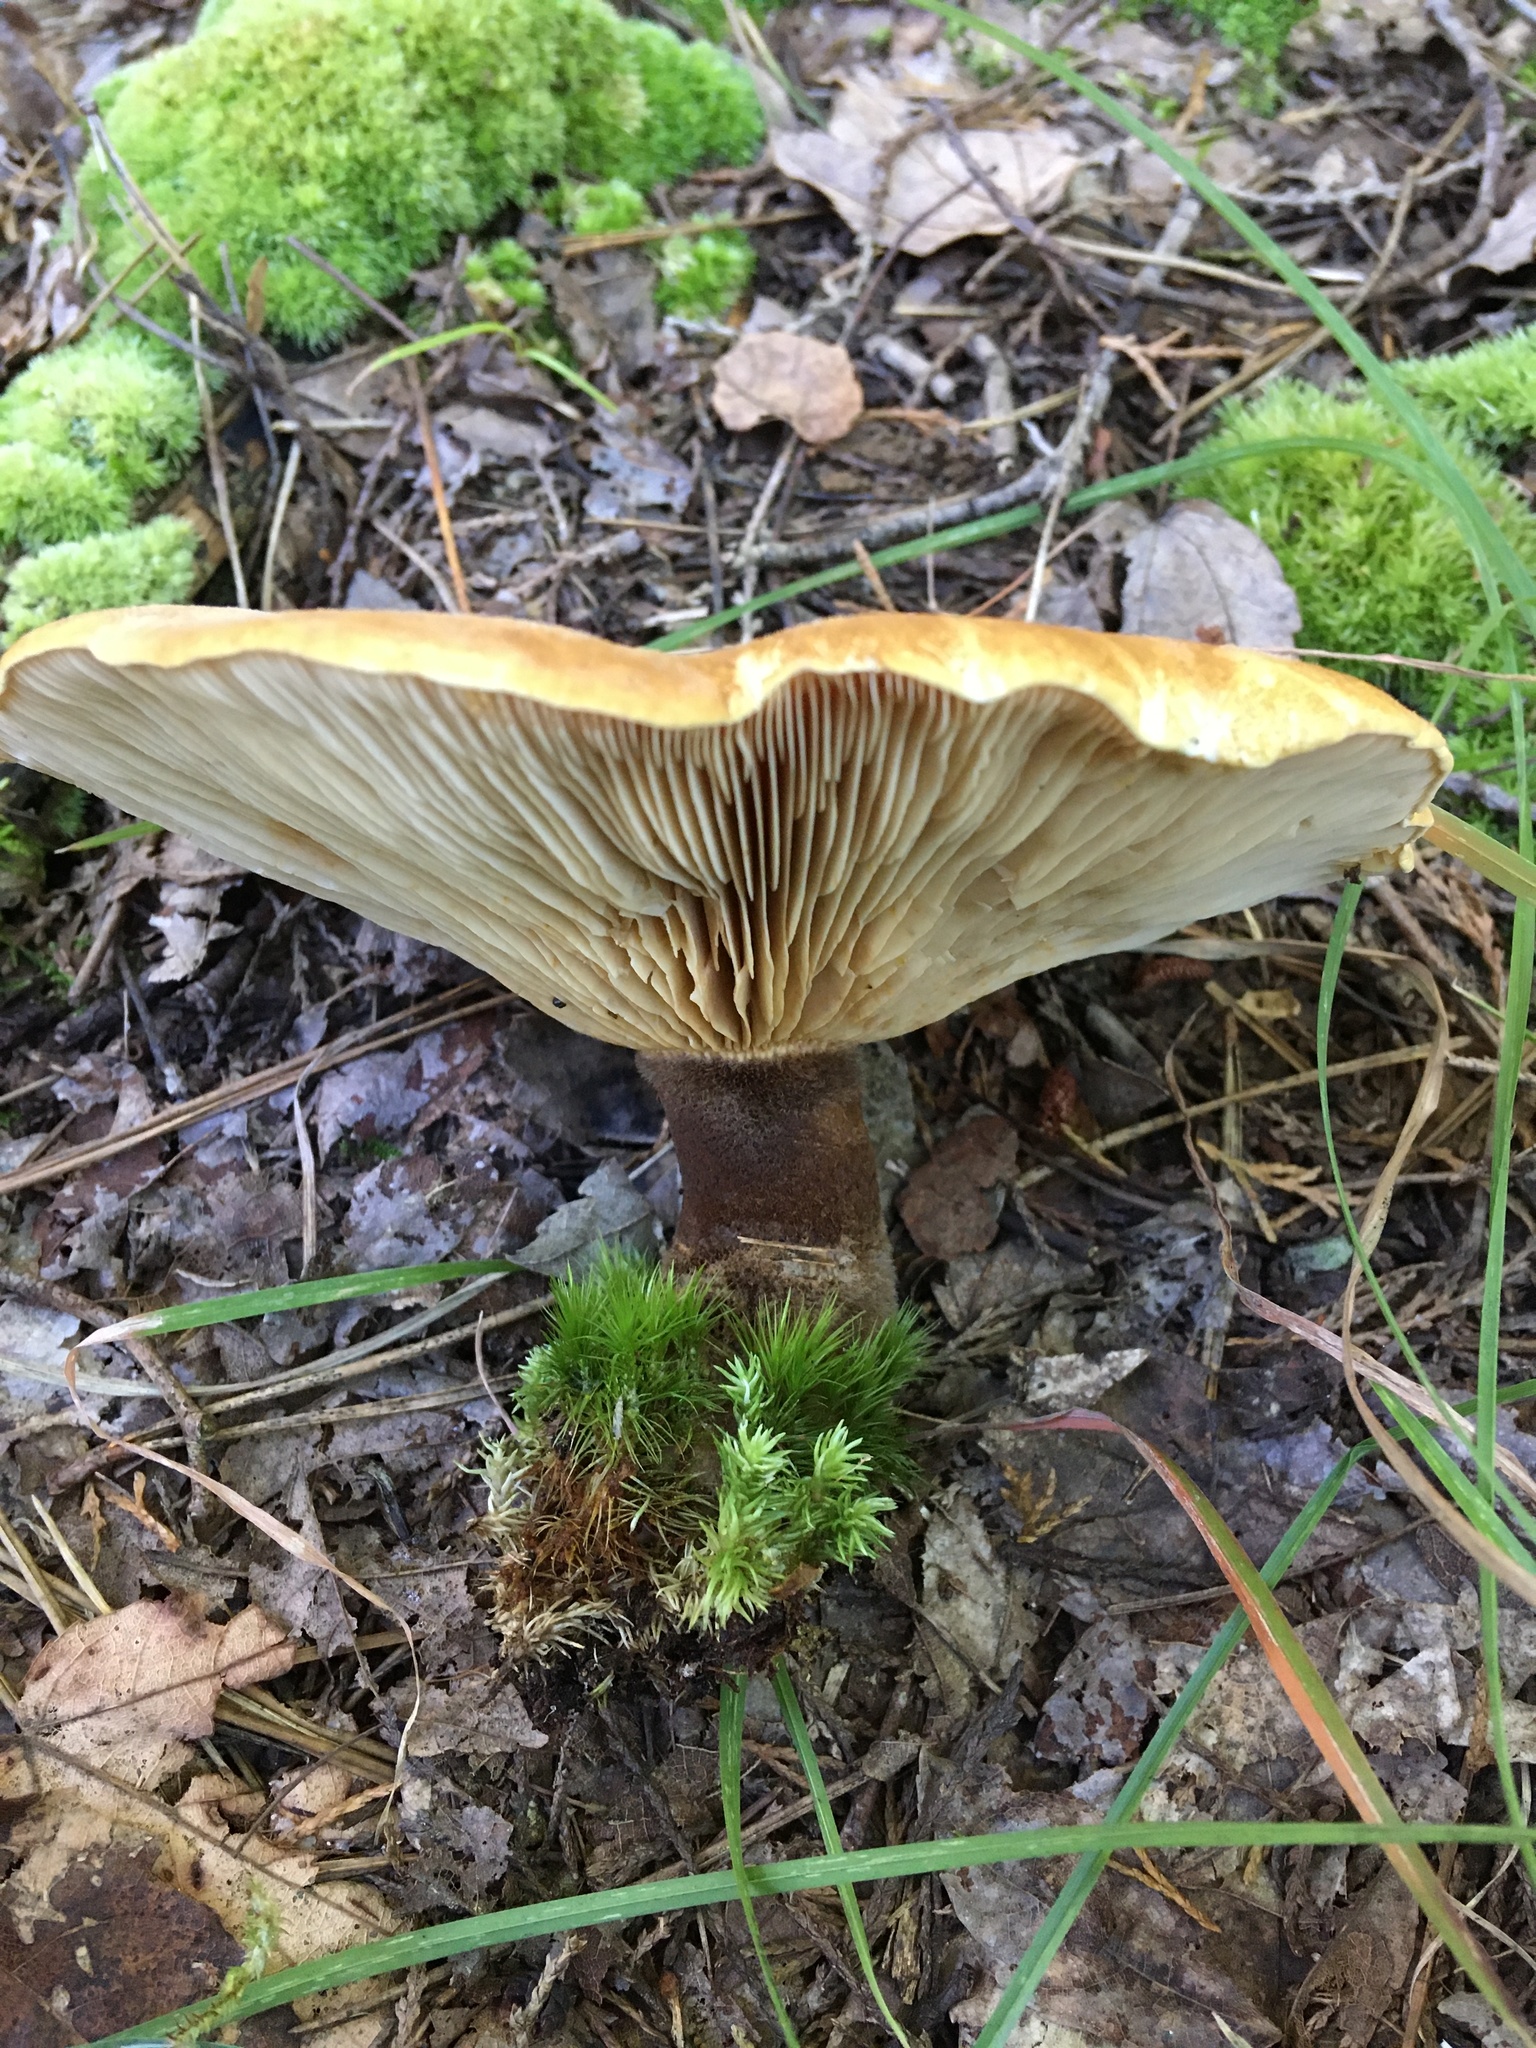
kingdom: Fungi
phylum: Basidiomycota
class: Agaricomycetes
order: Boletales
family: Tapinellaceae
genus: Tapinella
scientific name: Tapinella atrotomentosa
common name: Velvet rollrim
